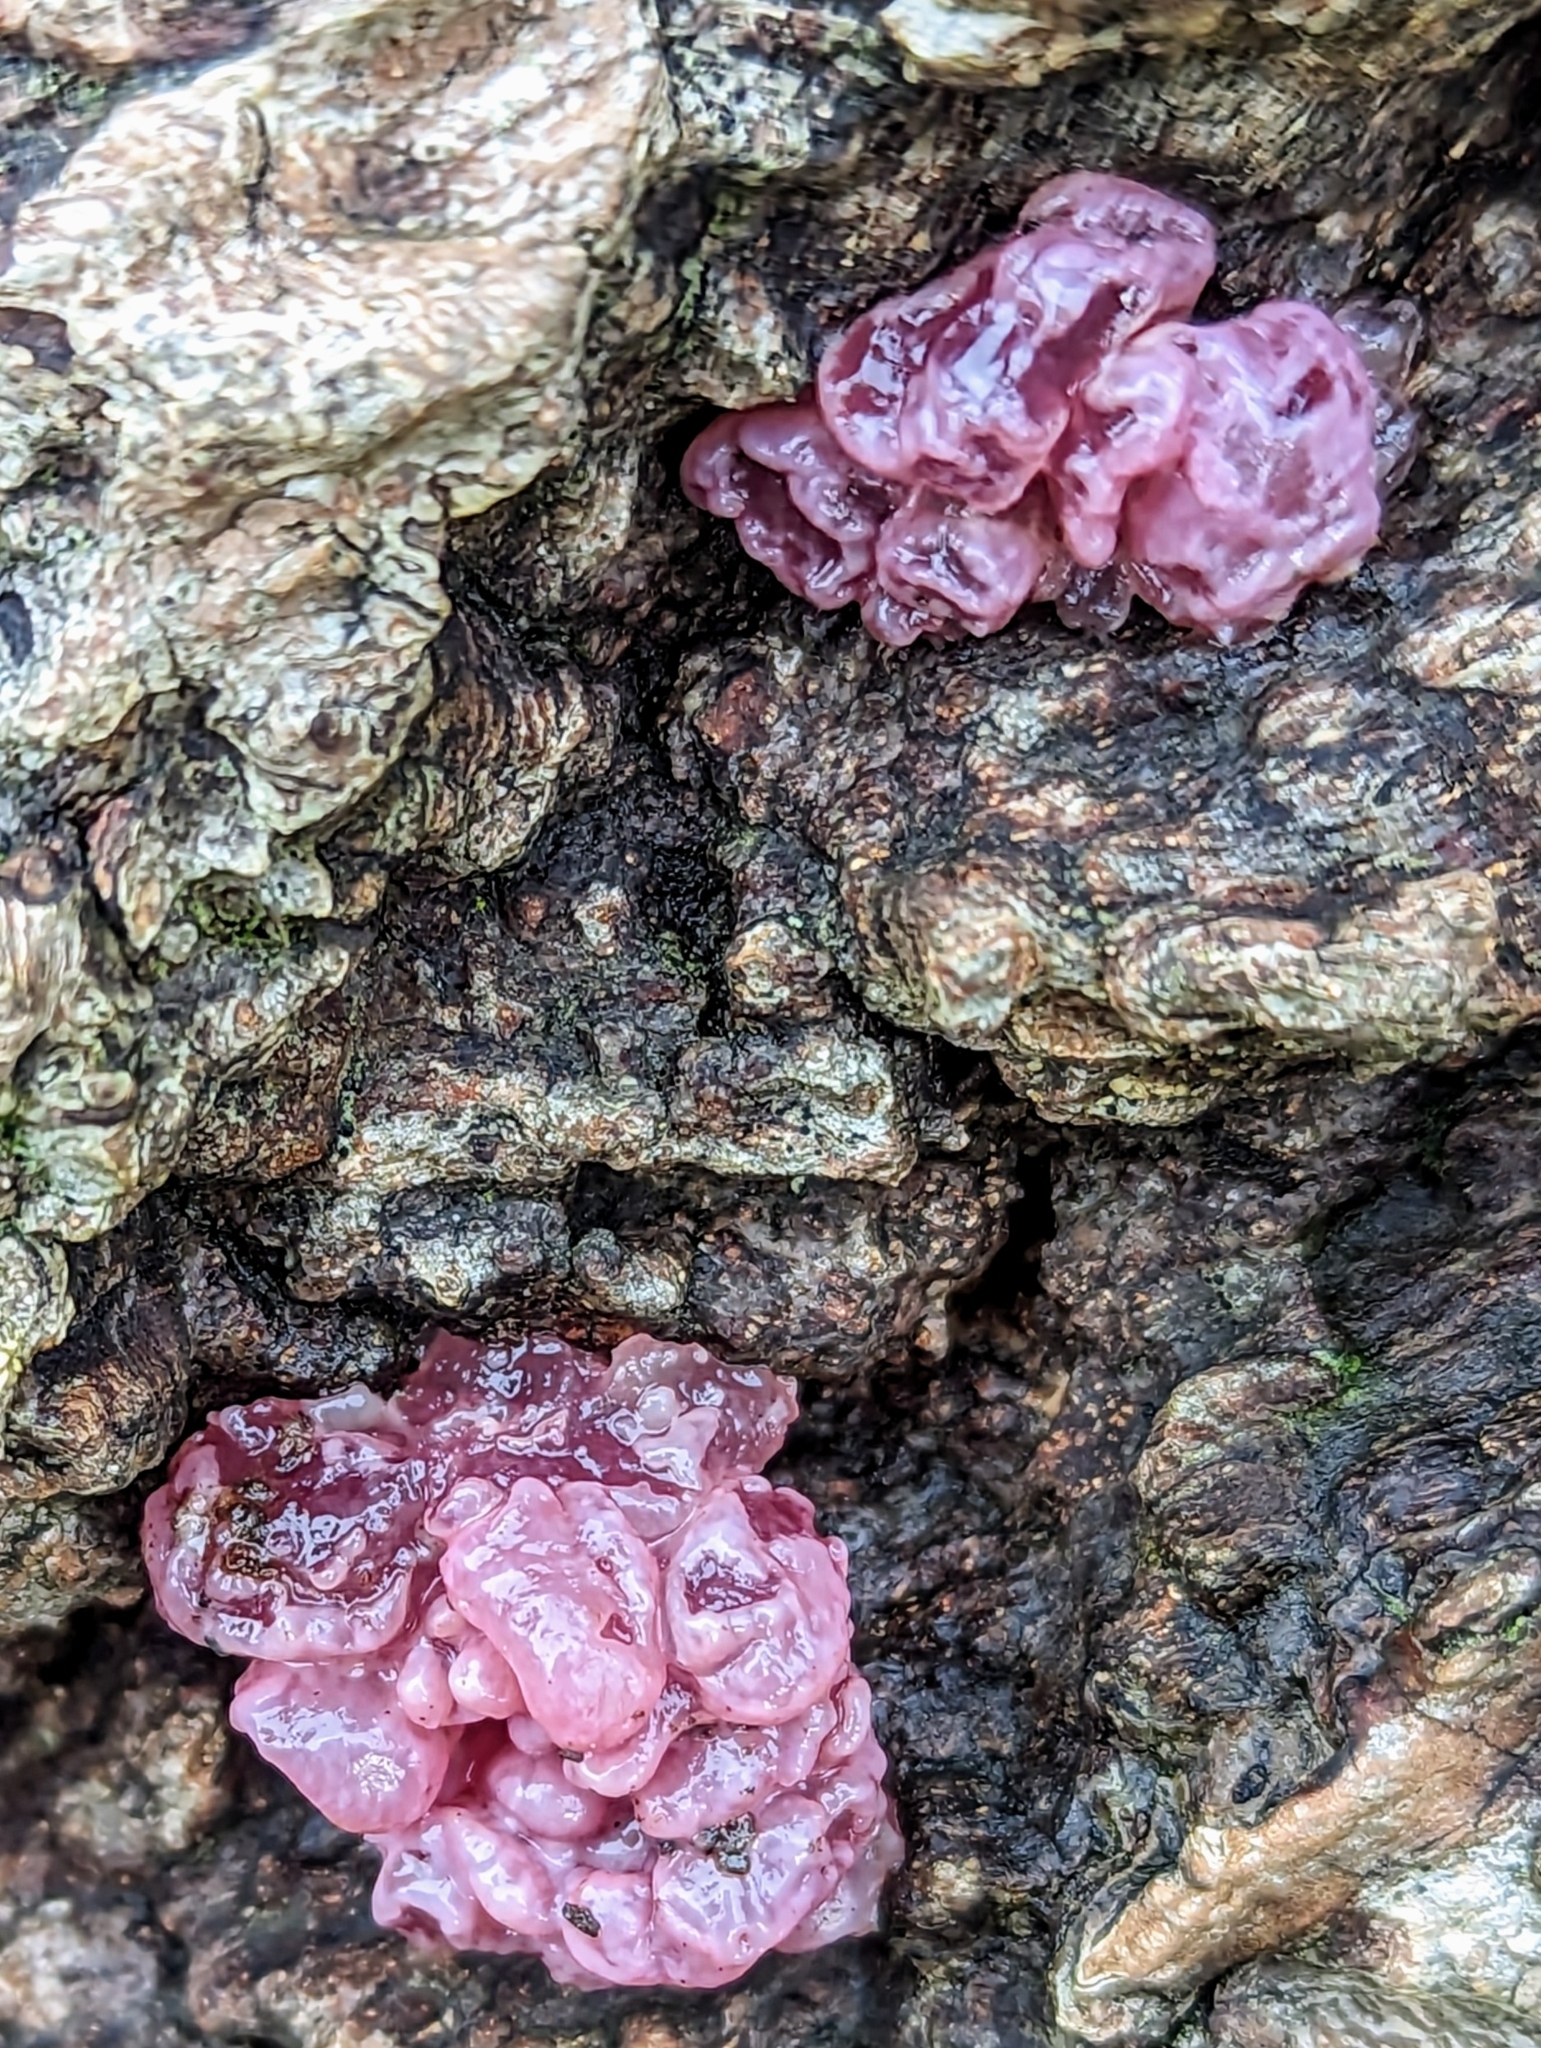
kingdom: Fungi
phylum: Ascomycota
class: Leotiomycetes
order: Helotiales
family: Gelatinodiscaceae
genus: Ascocoryne
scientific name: Ascocoryne sarcoides
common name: Purple jellydisc
